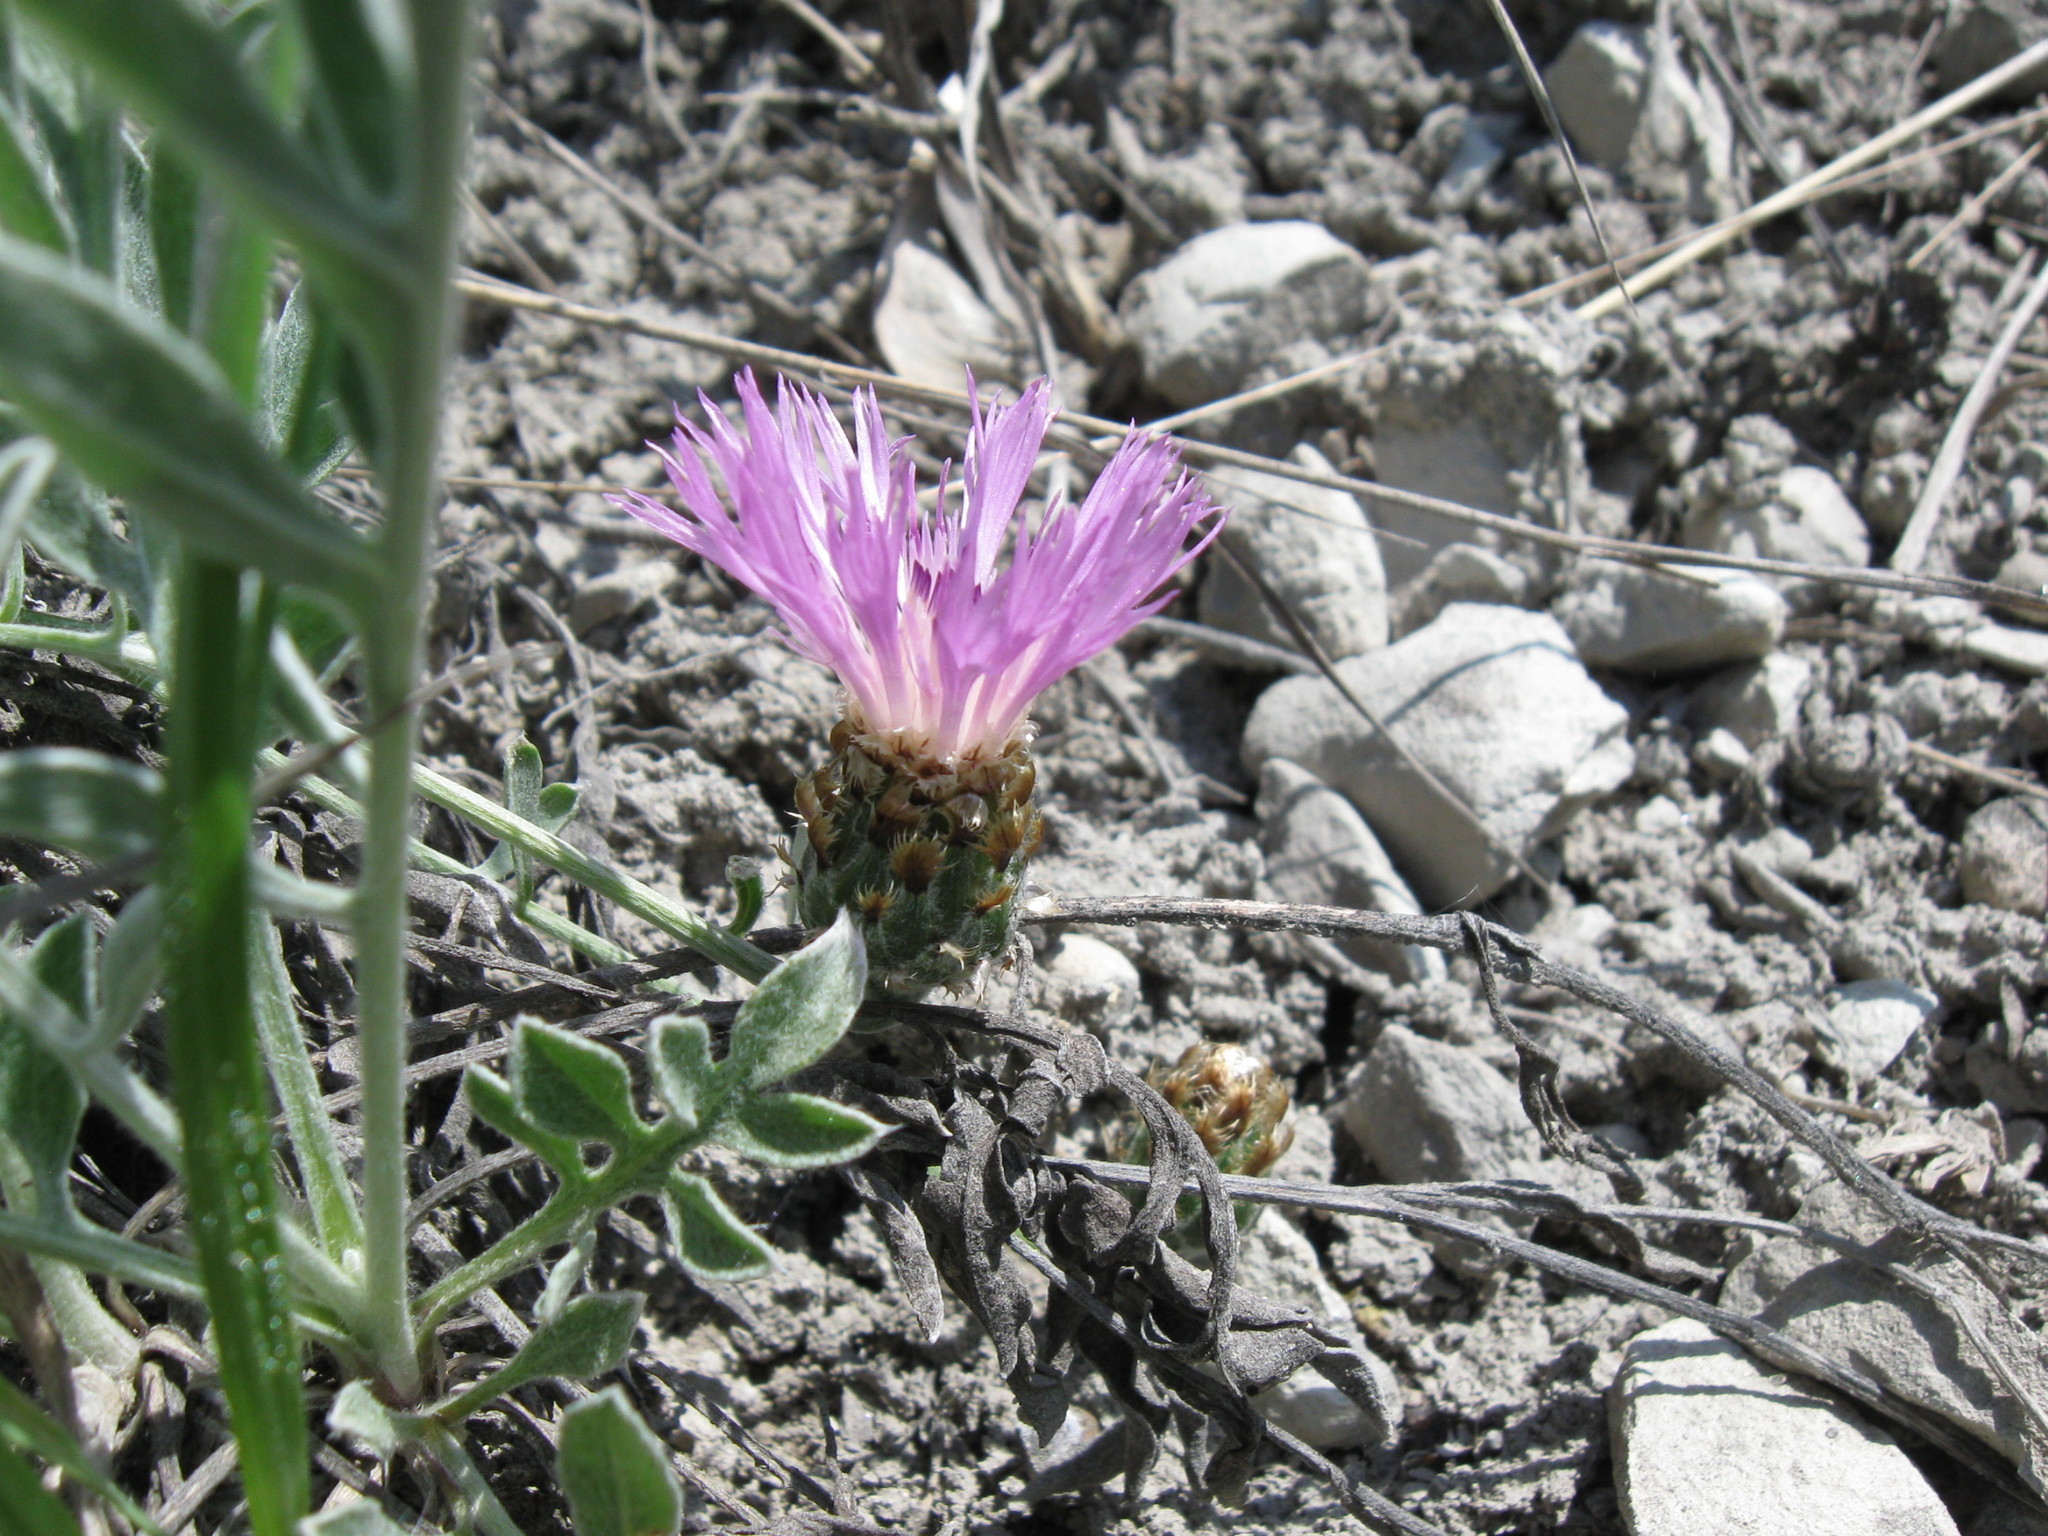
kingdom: Plantae
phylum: Tracheophyta
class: Magnoliopsida
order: Asterales
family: Asteraceae
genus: Psephellus
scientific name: Psephellus marschallianus
